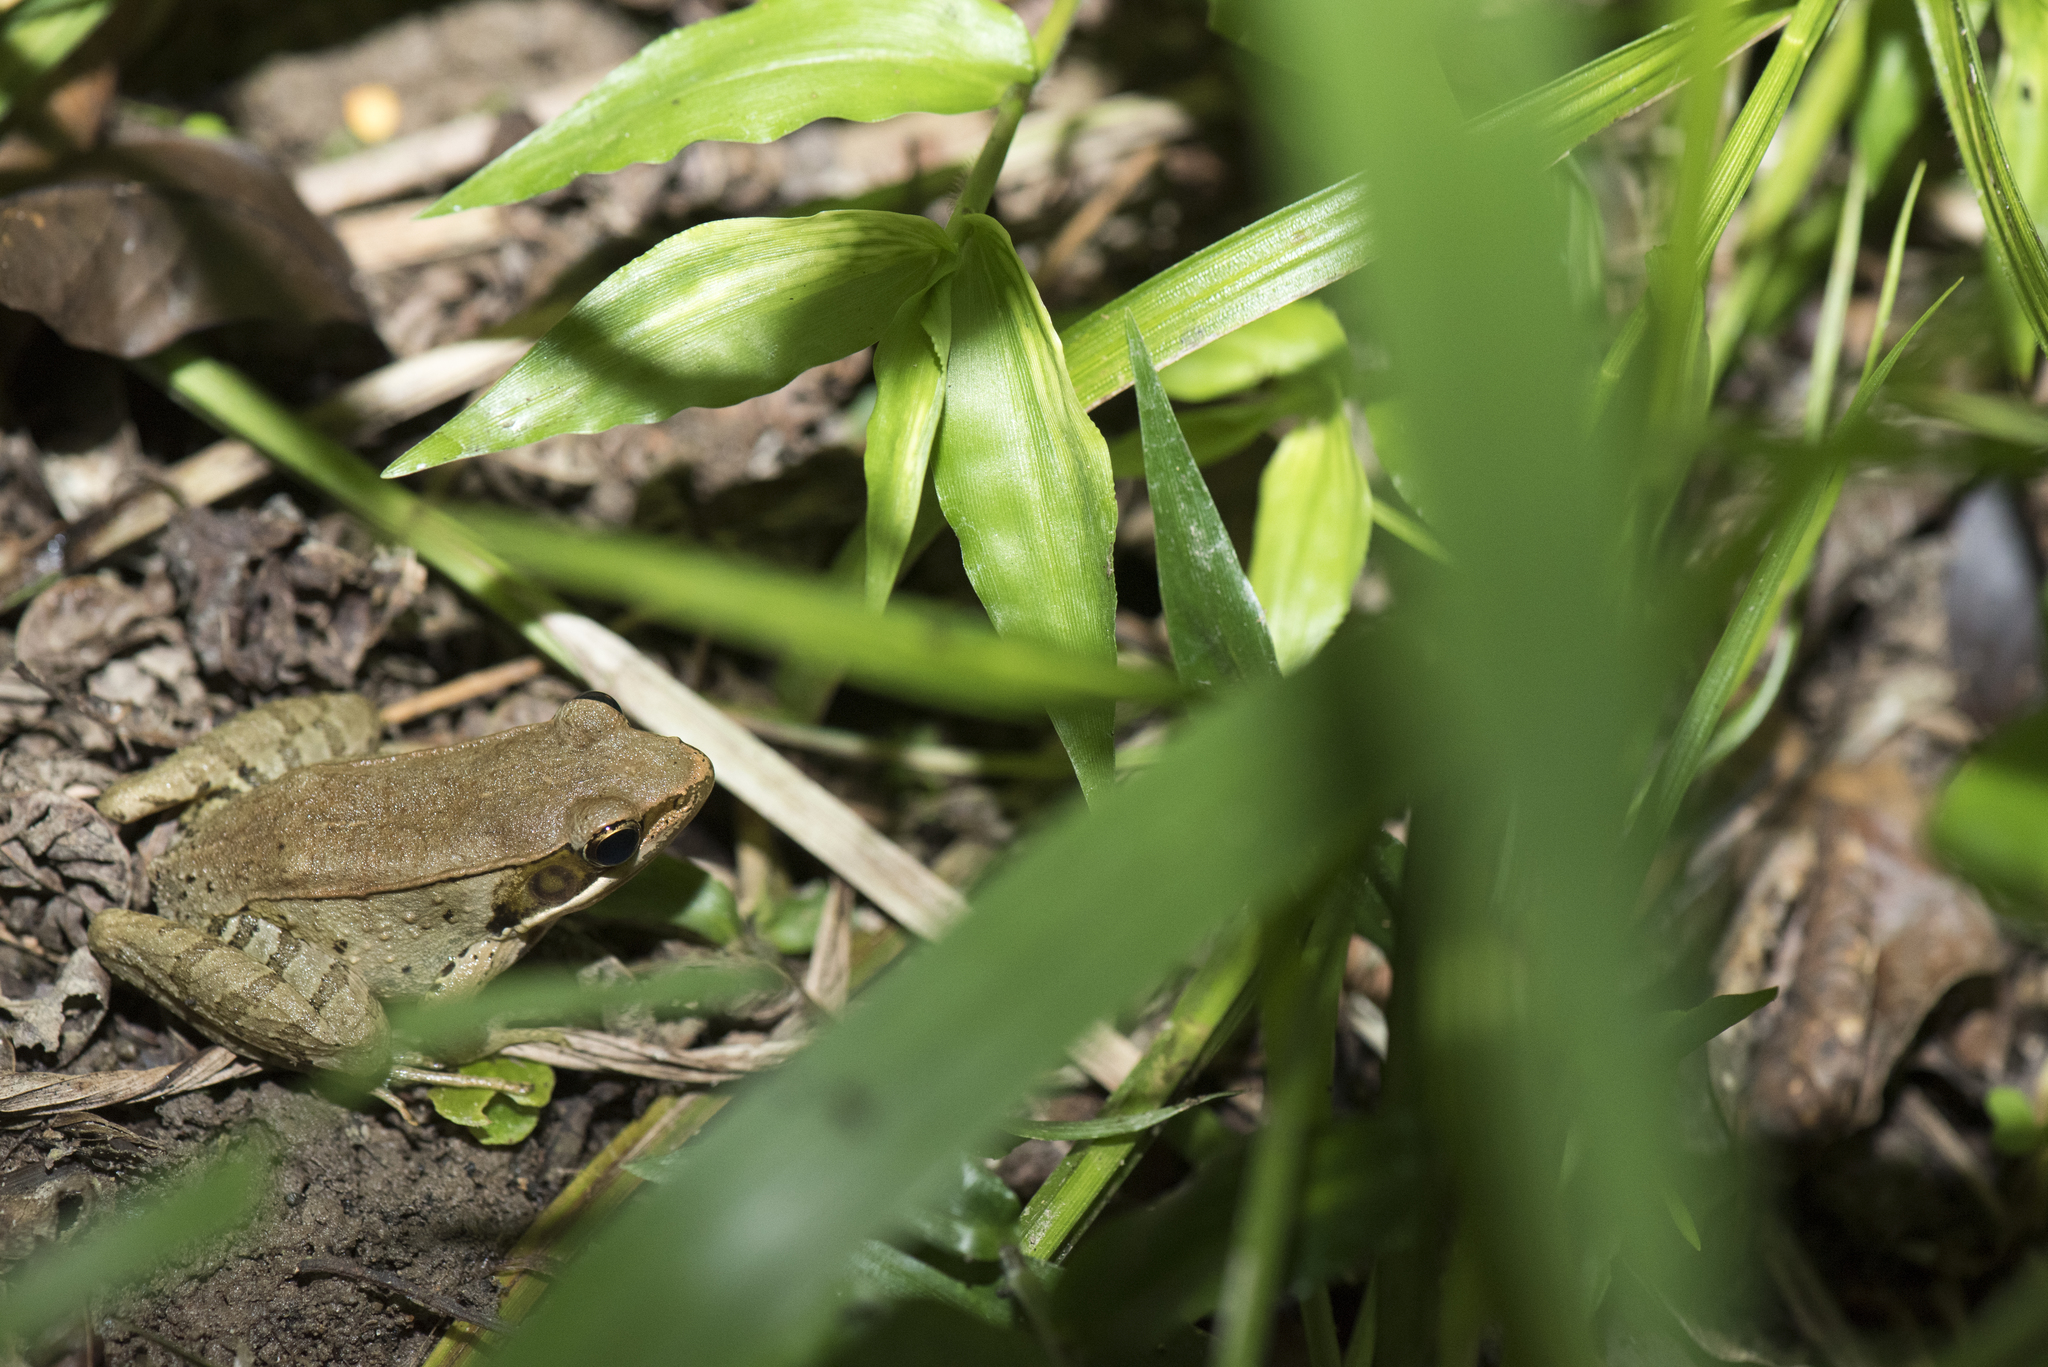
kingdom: Animalia
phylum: Chordata
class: Amphibia
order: Anura
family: Ranidae
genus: Nidirana
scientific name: Nidirana adenopleura
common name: Olive frog
